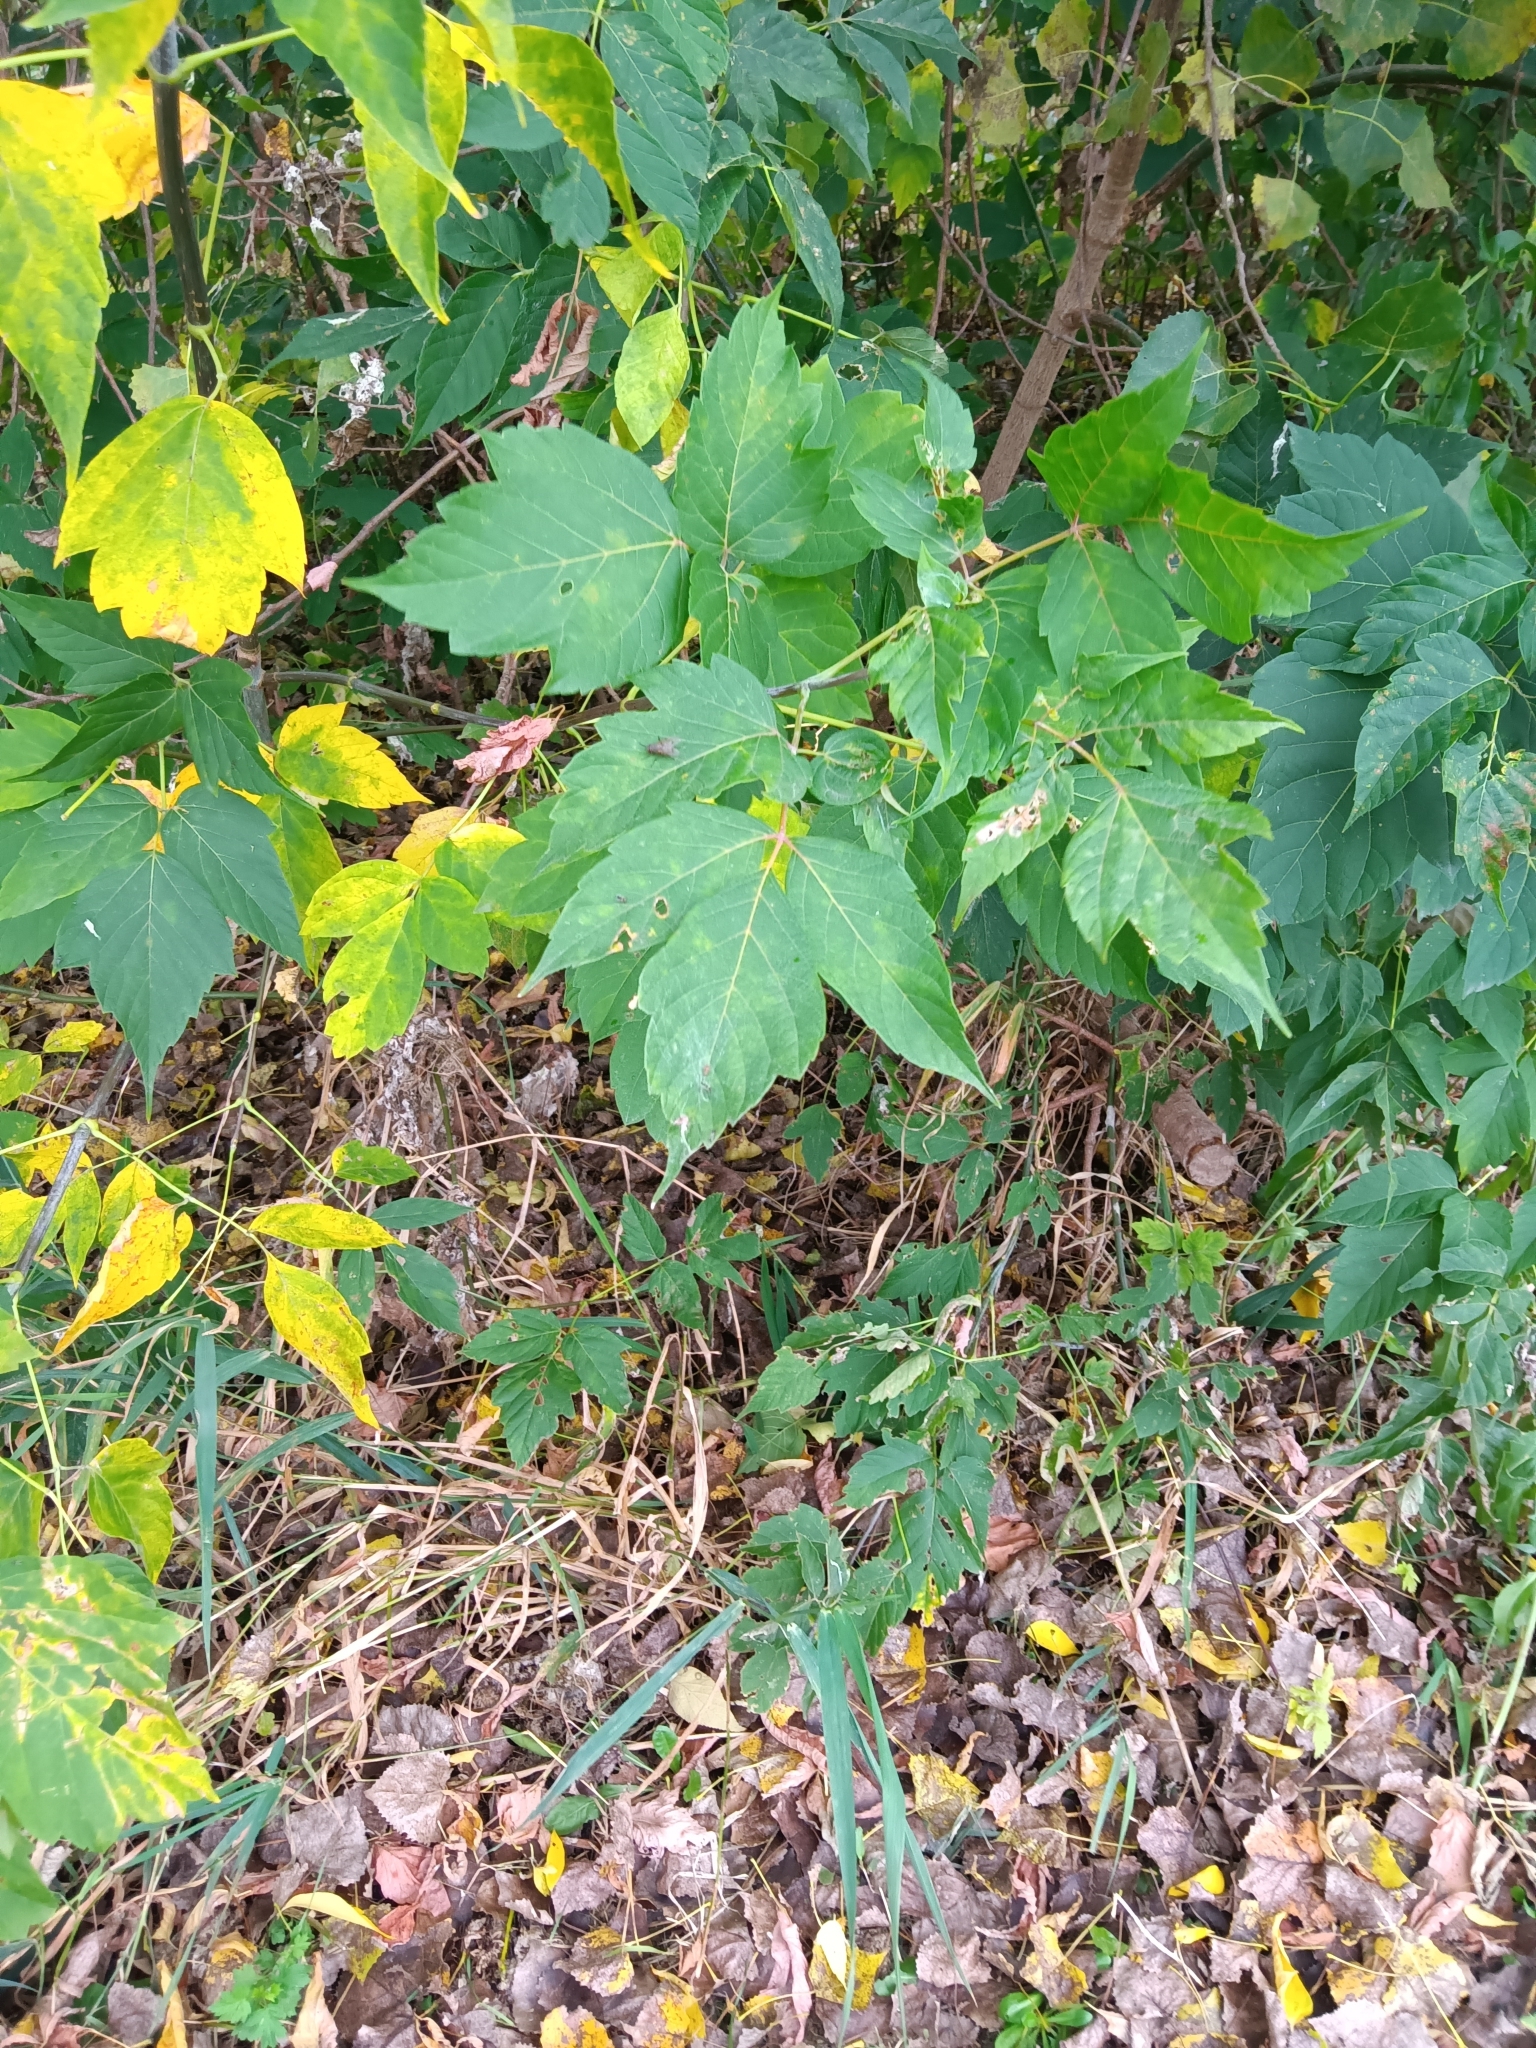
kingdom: Plantae
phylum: Tracheophyta
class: Magnoliopsida
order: Sapindales
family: Sapindaceae
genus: Acer
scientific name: Acer negundo
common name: Ashleaf maple
